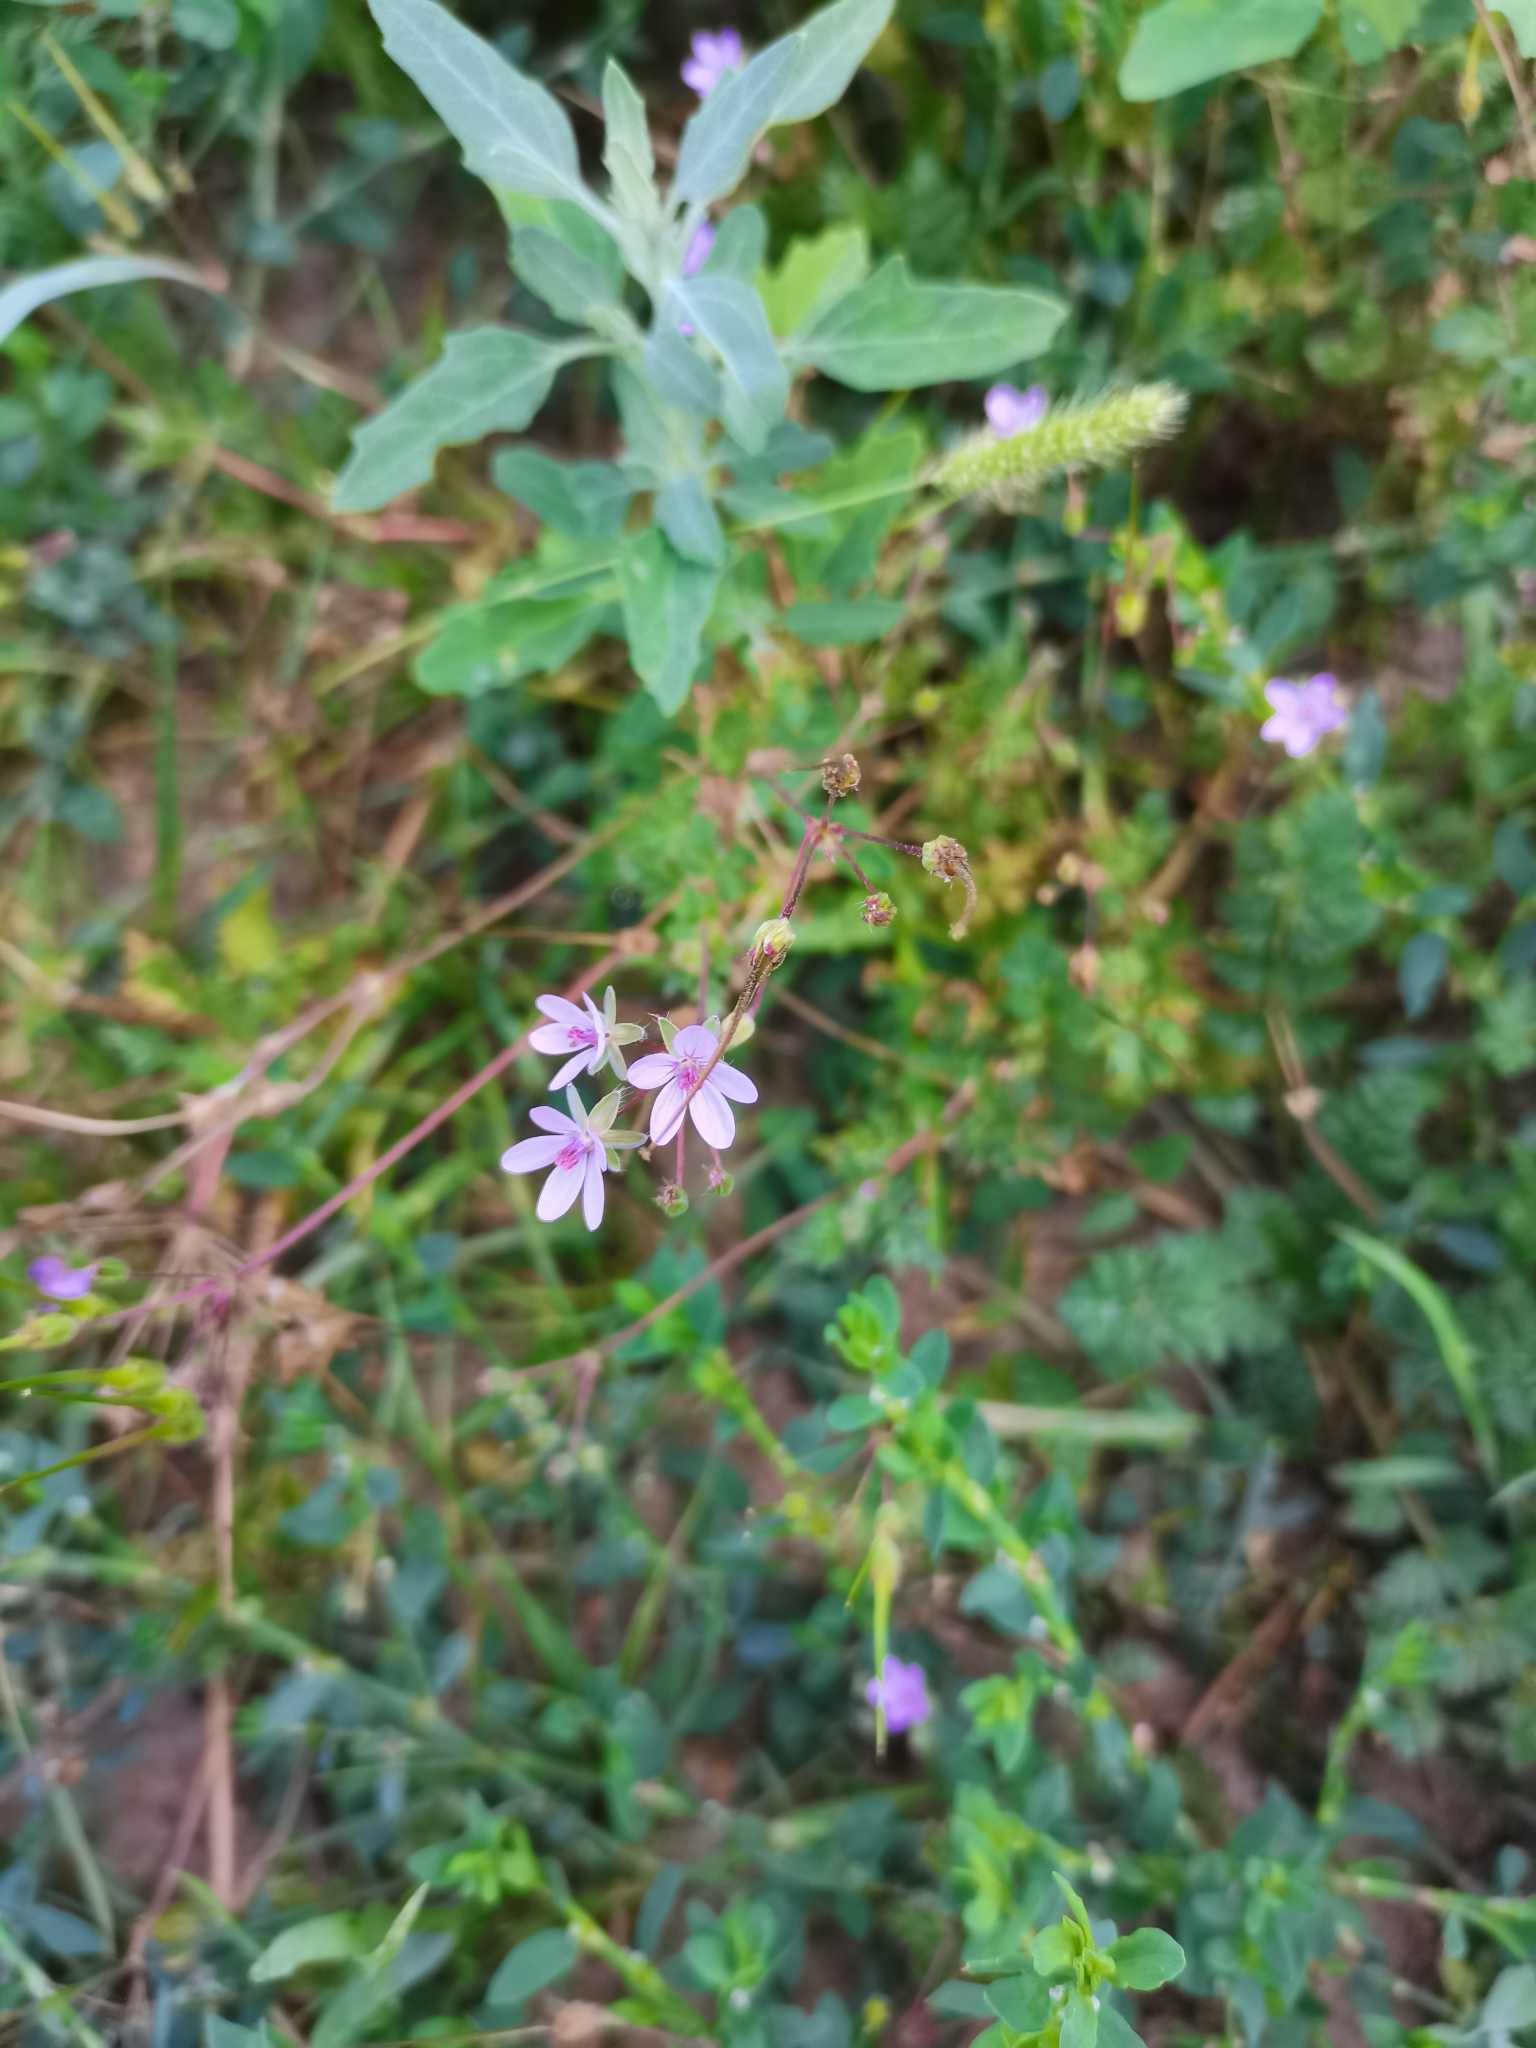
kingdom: Plantae
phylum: Tracheophyta
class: Magnoliopsida
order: Geraniales
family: Geraniaceae
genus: Erodium
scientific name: Erodium cicutarium
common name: Common stork's-bill
